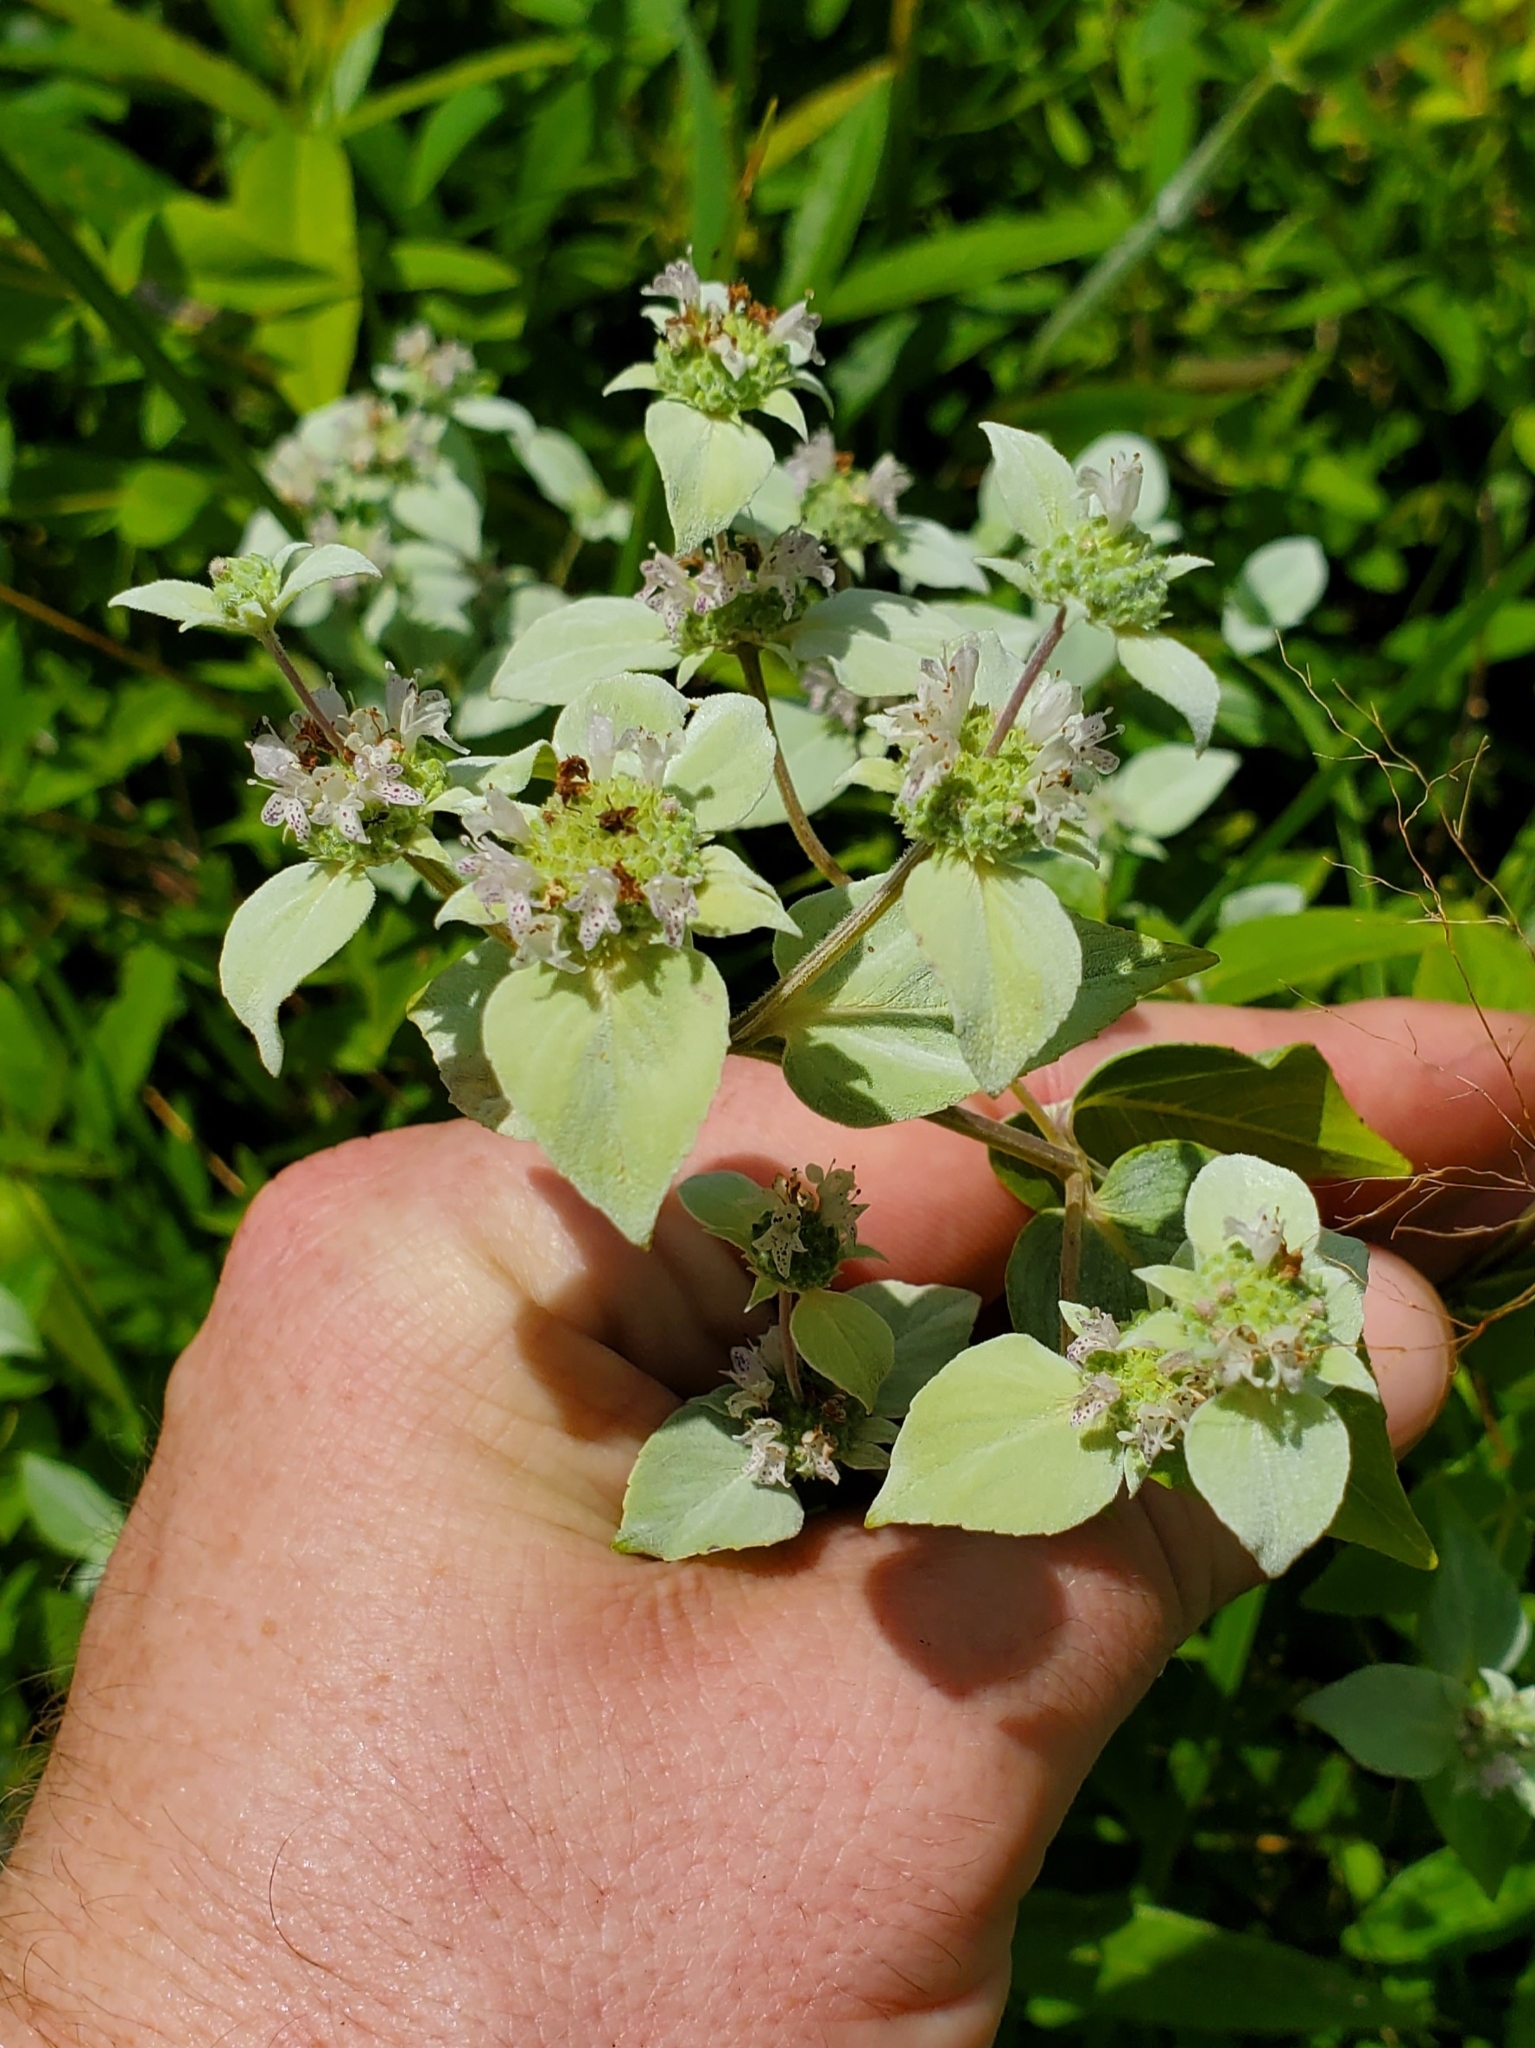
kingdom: Plantae
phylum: Tracheophyta
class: Magnoliopsida
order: Lamiales
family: Lamiaceae
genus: Pycnanthemum
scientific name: Pycnanthemum muticum
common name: Blunt mountain-mint
